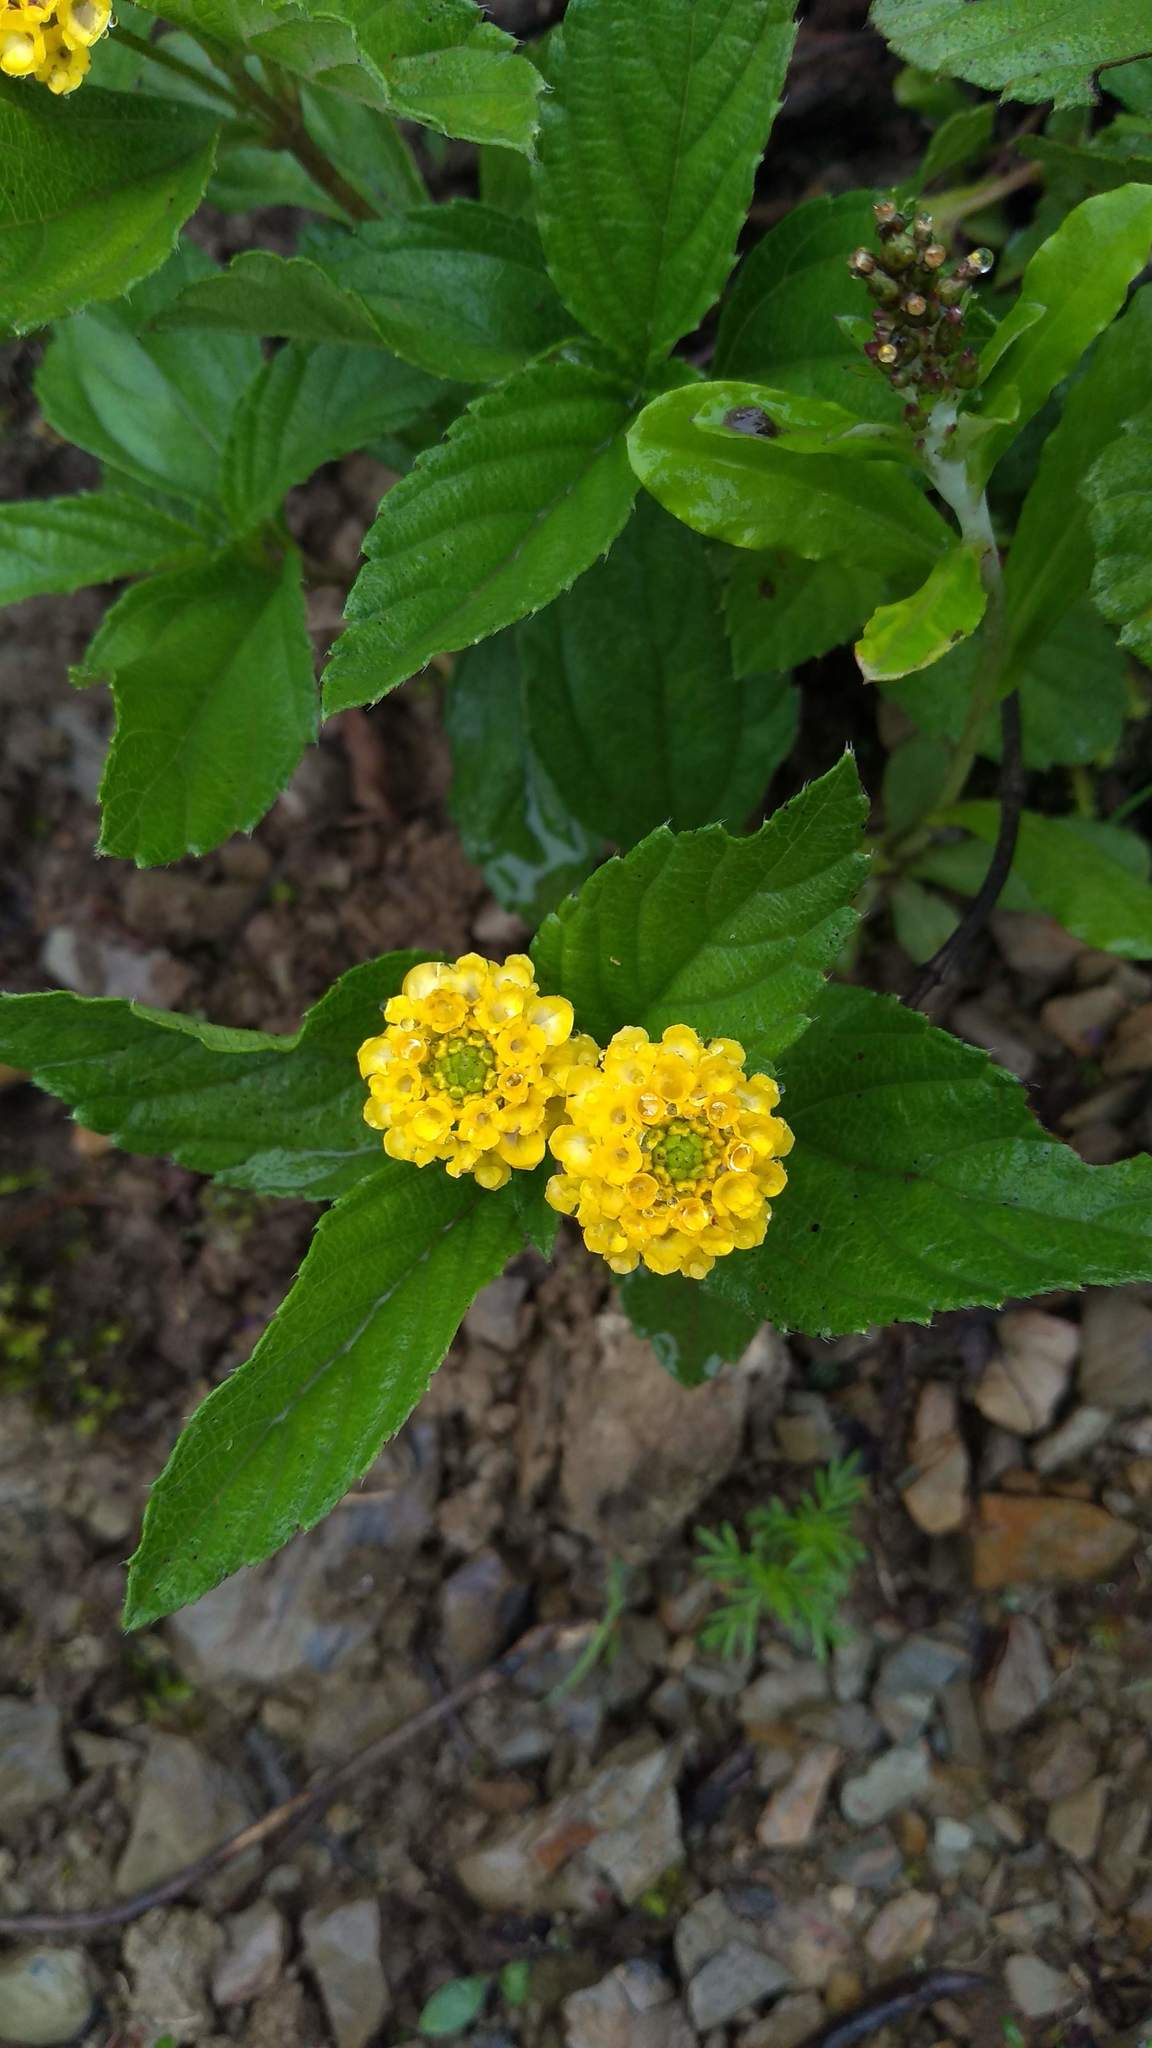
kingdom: Plantae
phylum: Tracheophyta
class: Magnoliopsida
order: Lamiales
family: Verbenaceae
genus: Lippia
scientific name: Lippia turnerifolia
